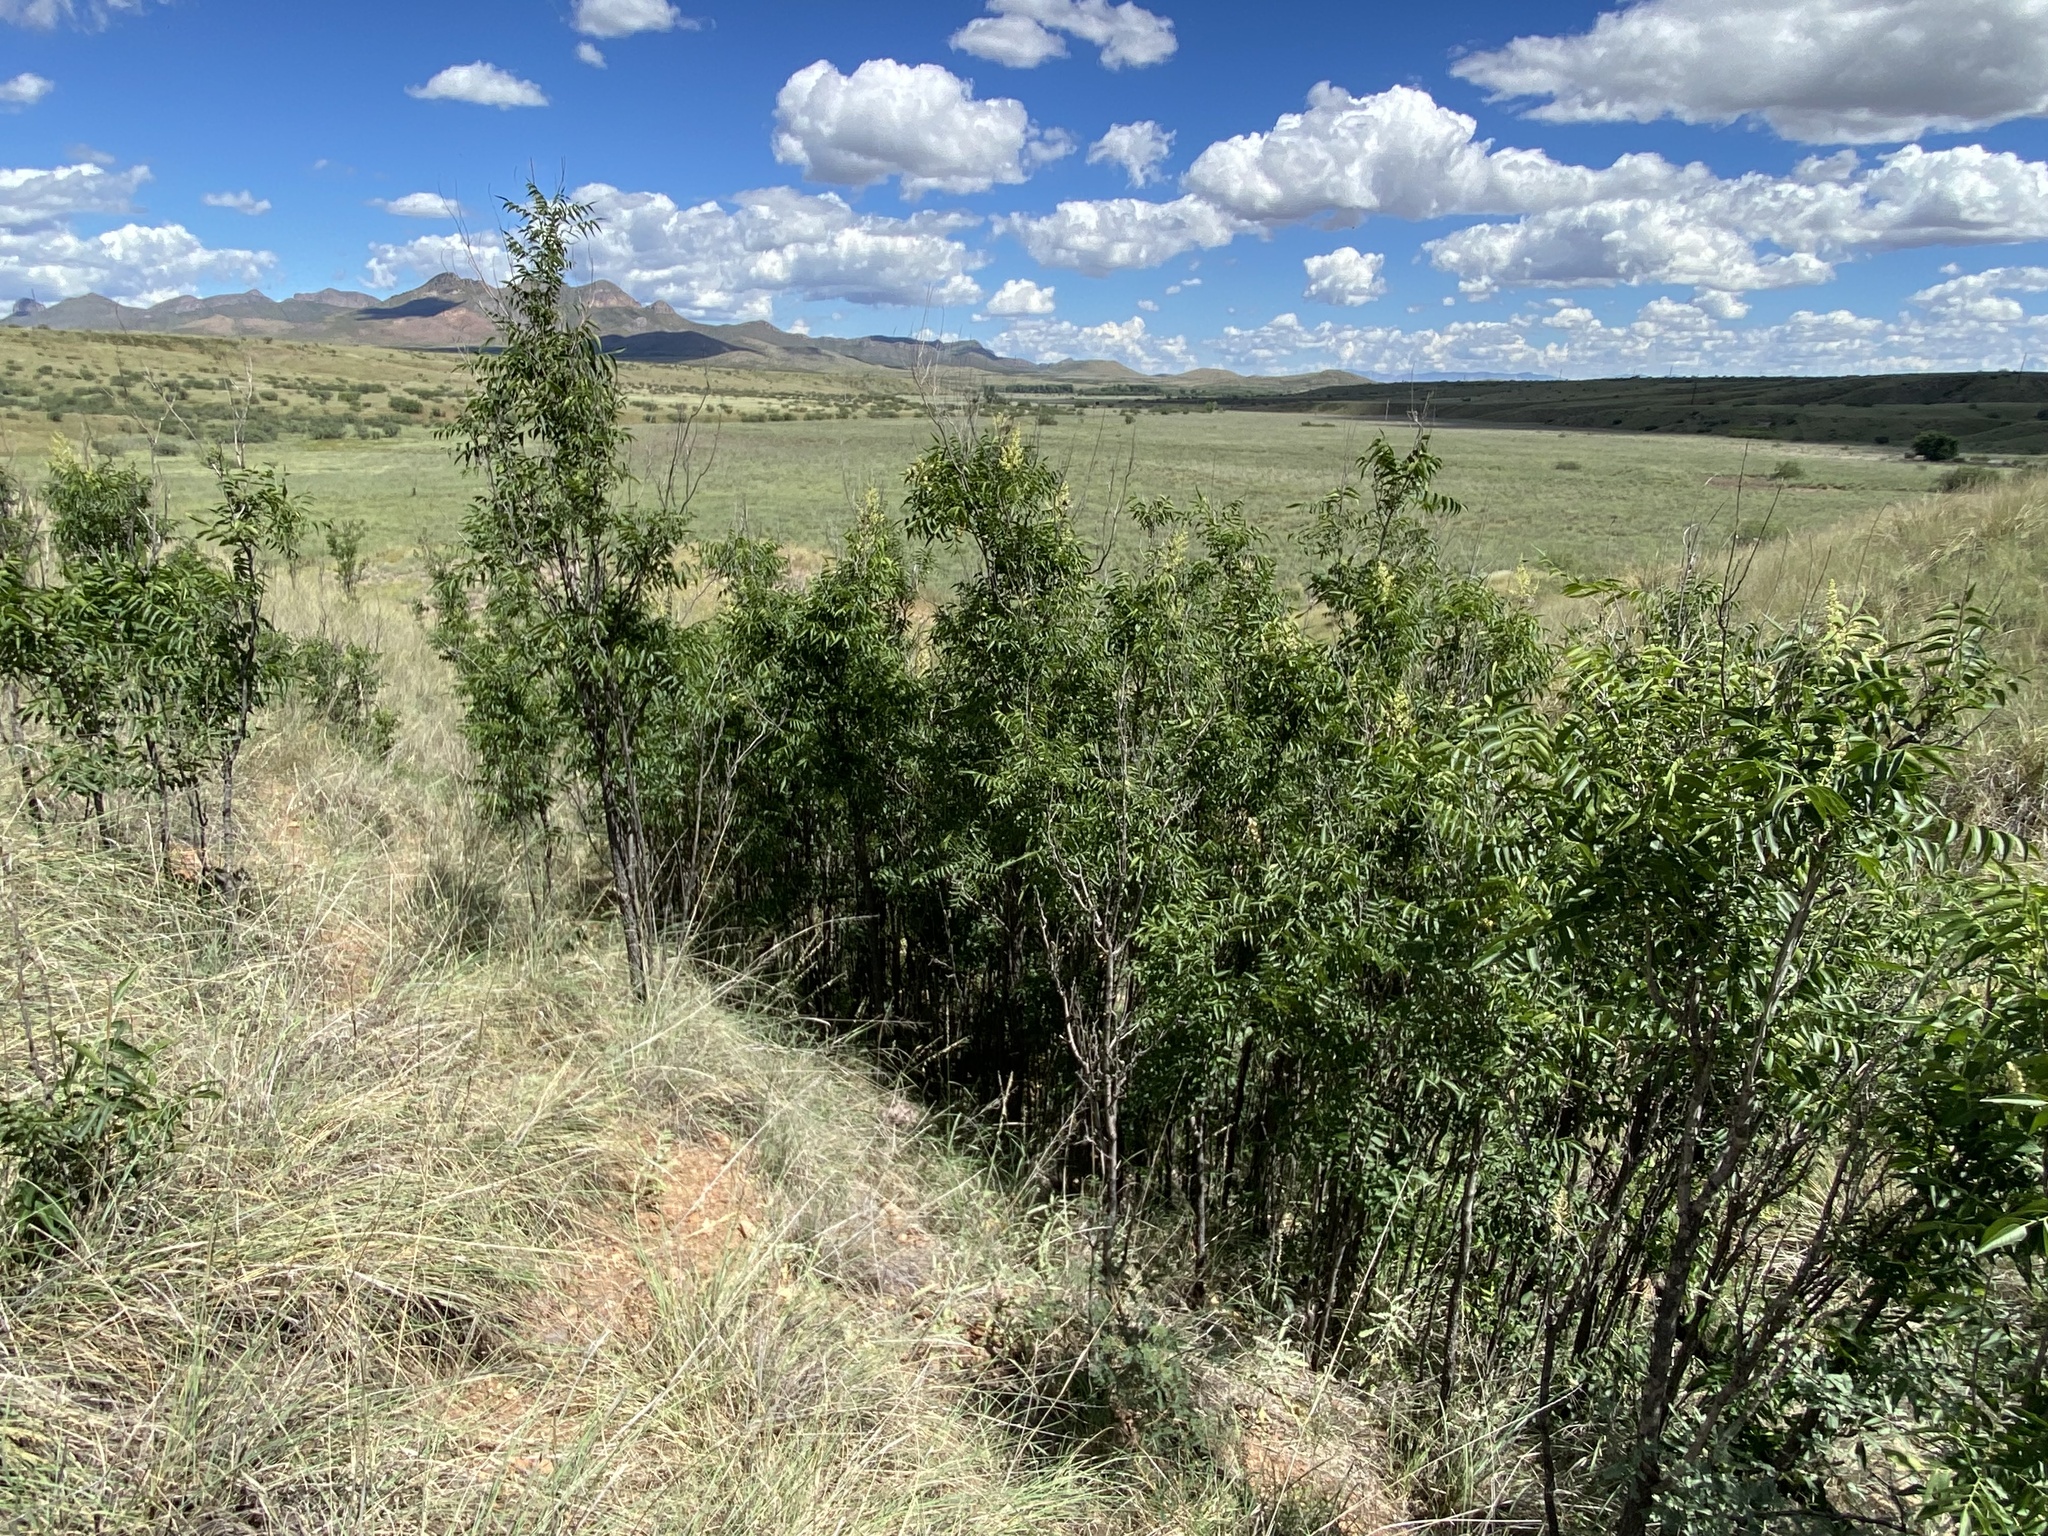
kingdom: Plantae
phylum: Tracheophyta
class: Magnoliopsida
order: Sapindales
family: Sapindaceae
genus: Sapindus
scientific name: Sapindus drummondii
